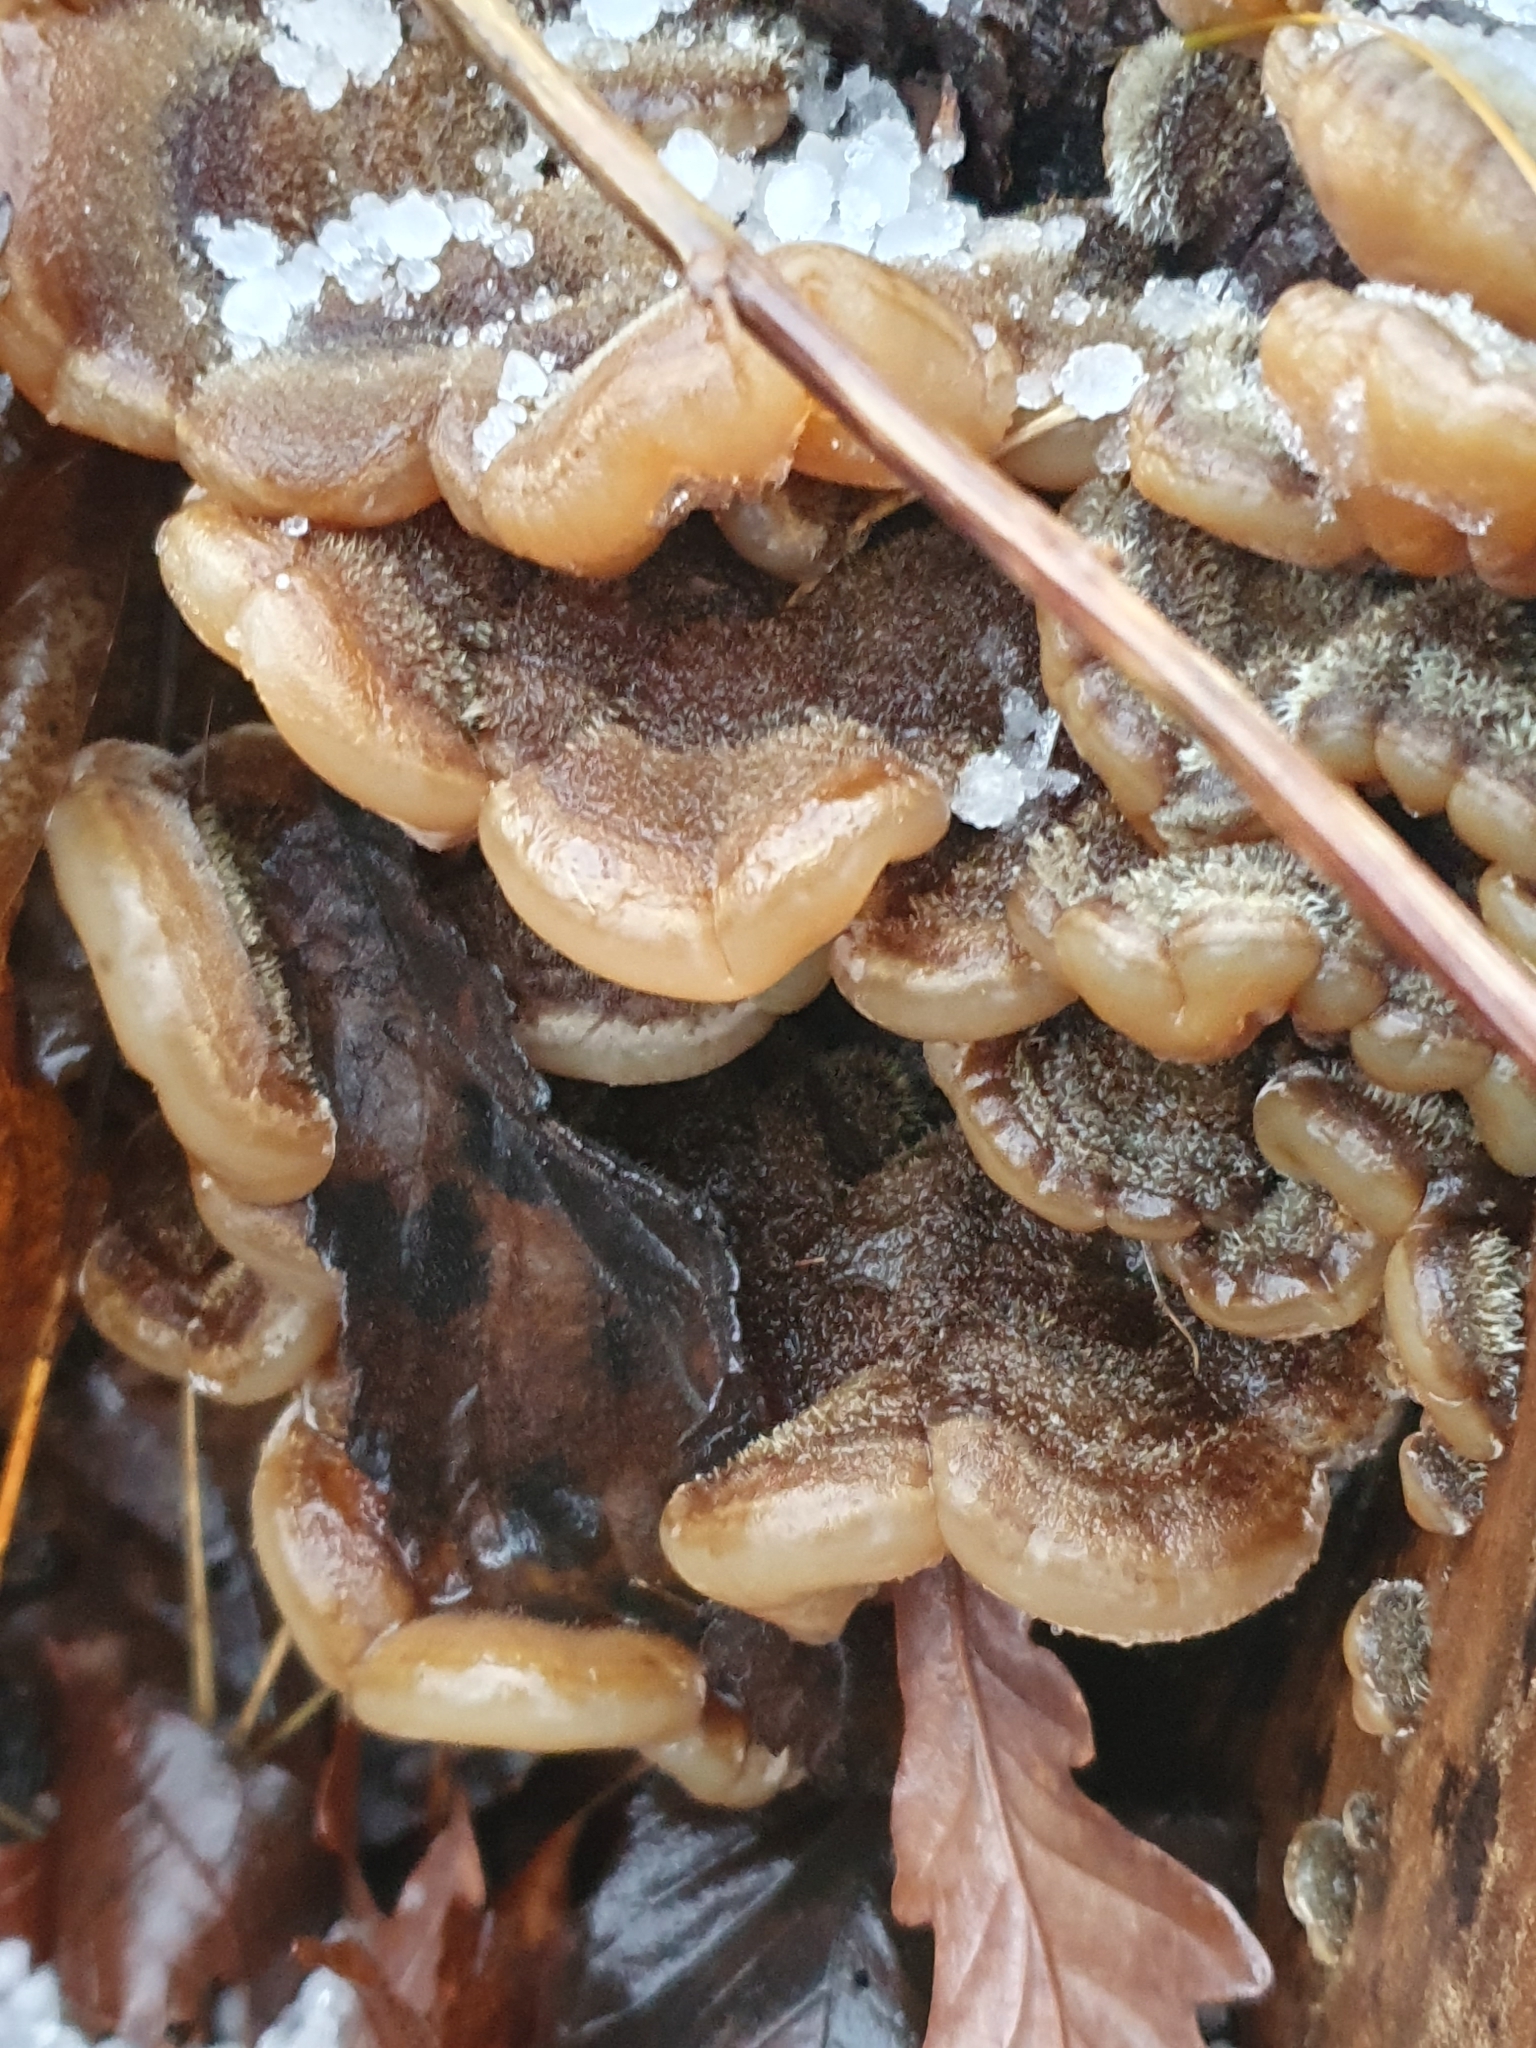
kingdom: Fungi
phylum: Basidiomycota
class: Agaricomycetes
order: Auriculariales
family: Auriculariaceae
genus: Auricularia
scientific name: Auricularia mesenterica
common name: Tripe fungus
